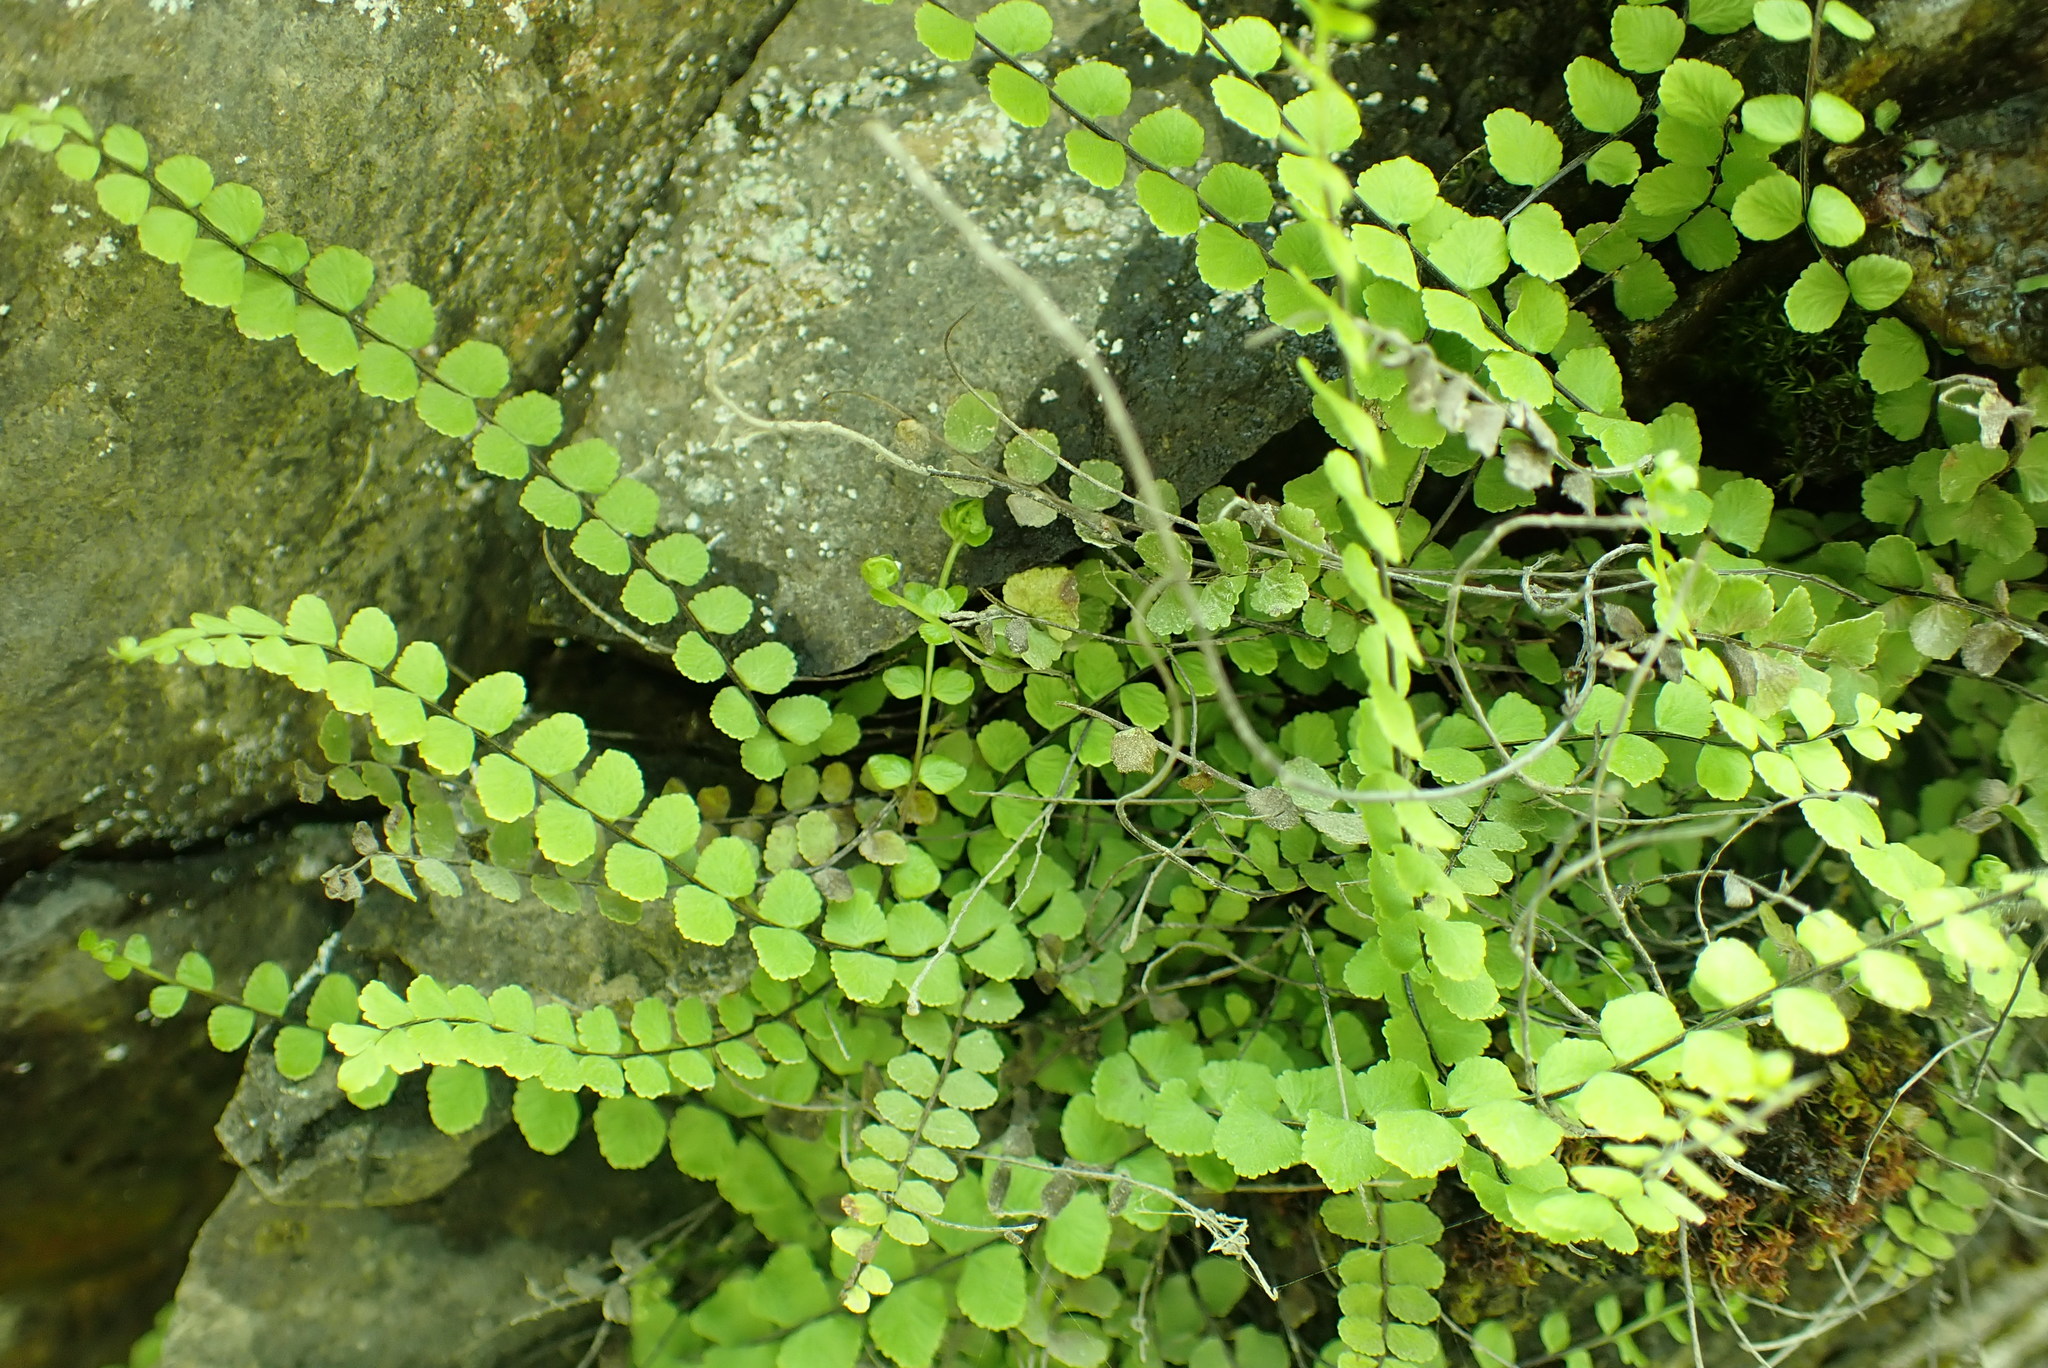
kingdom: Plantae
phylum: Tracheophyta
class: Polypodiopsida
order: Polypodiales
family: Aspleniaceae
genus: Asplenium
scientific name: Asplenium trichomanes
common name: Maidenhair spleenwort
